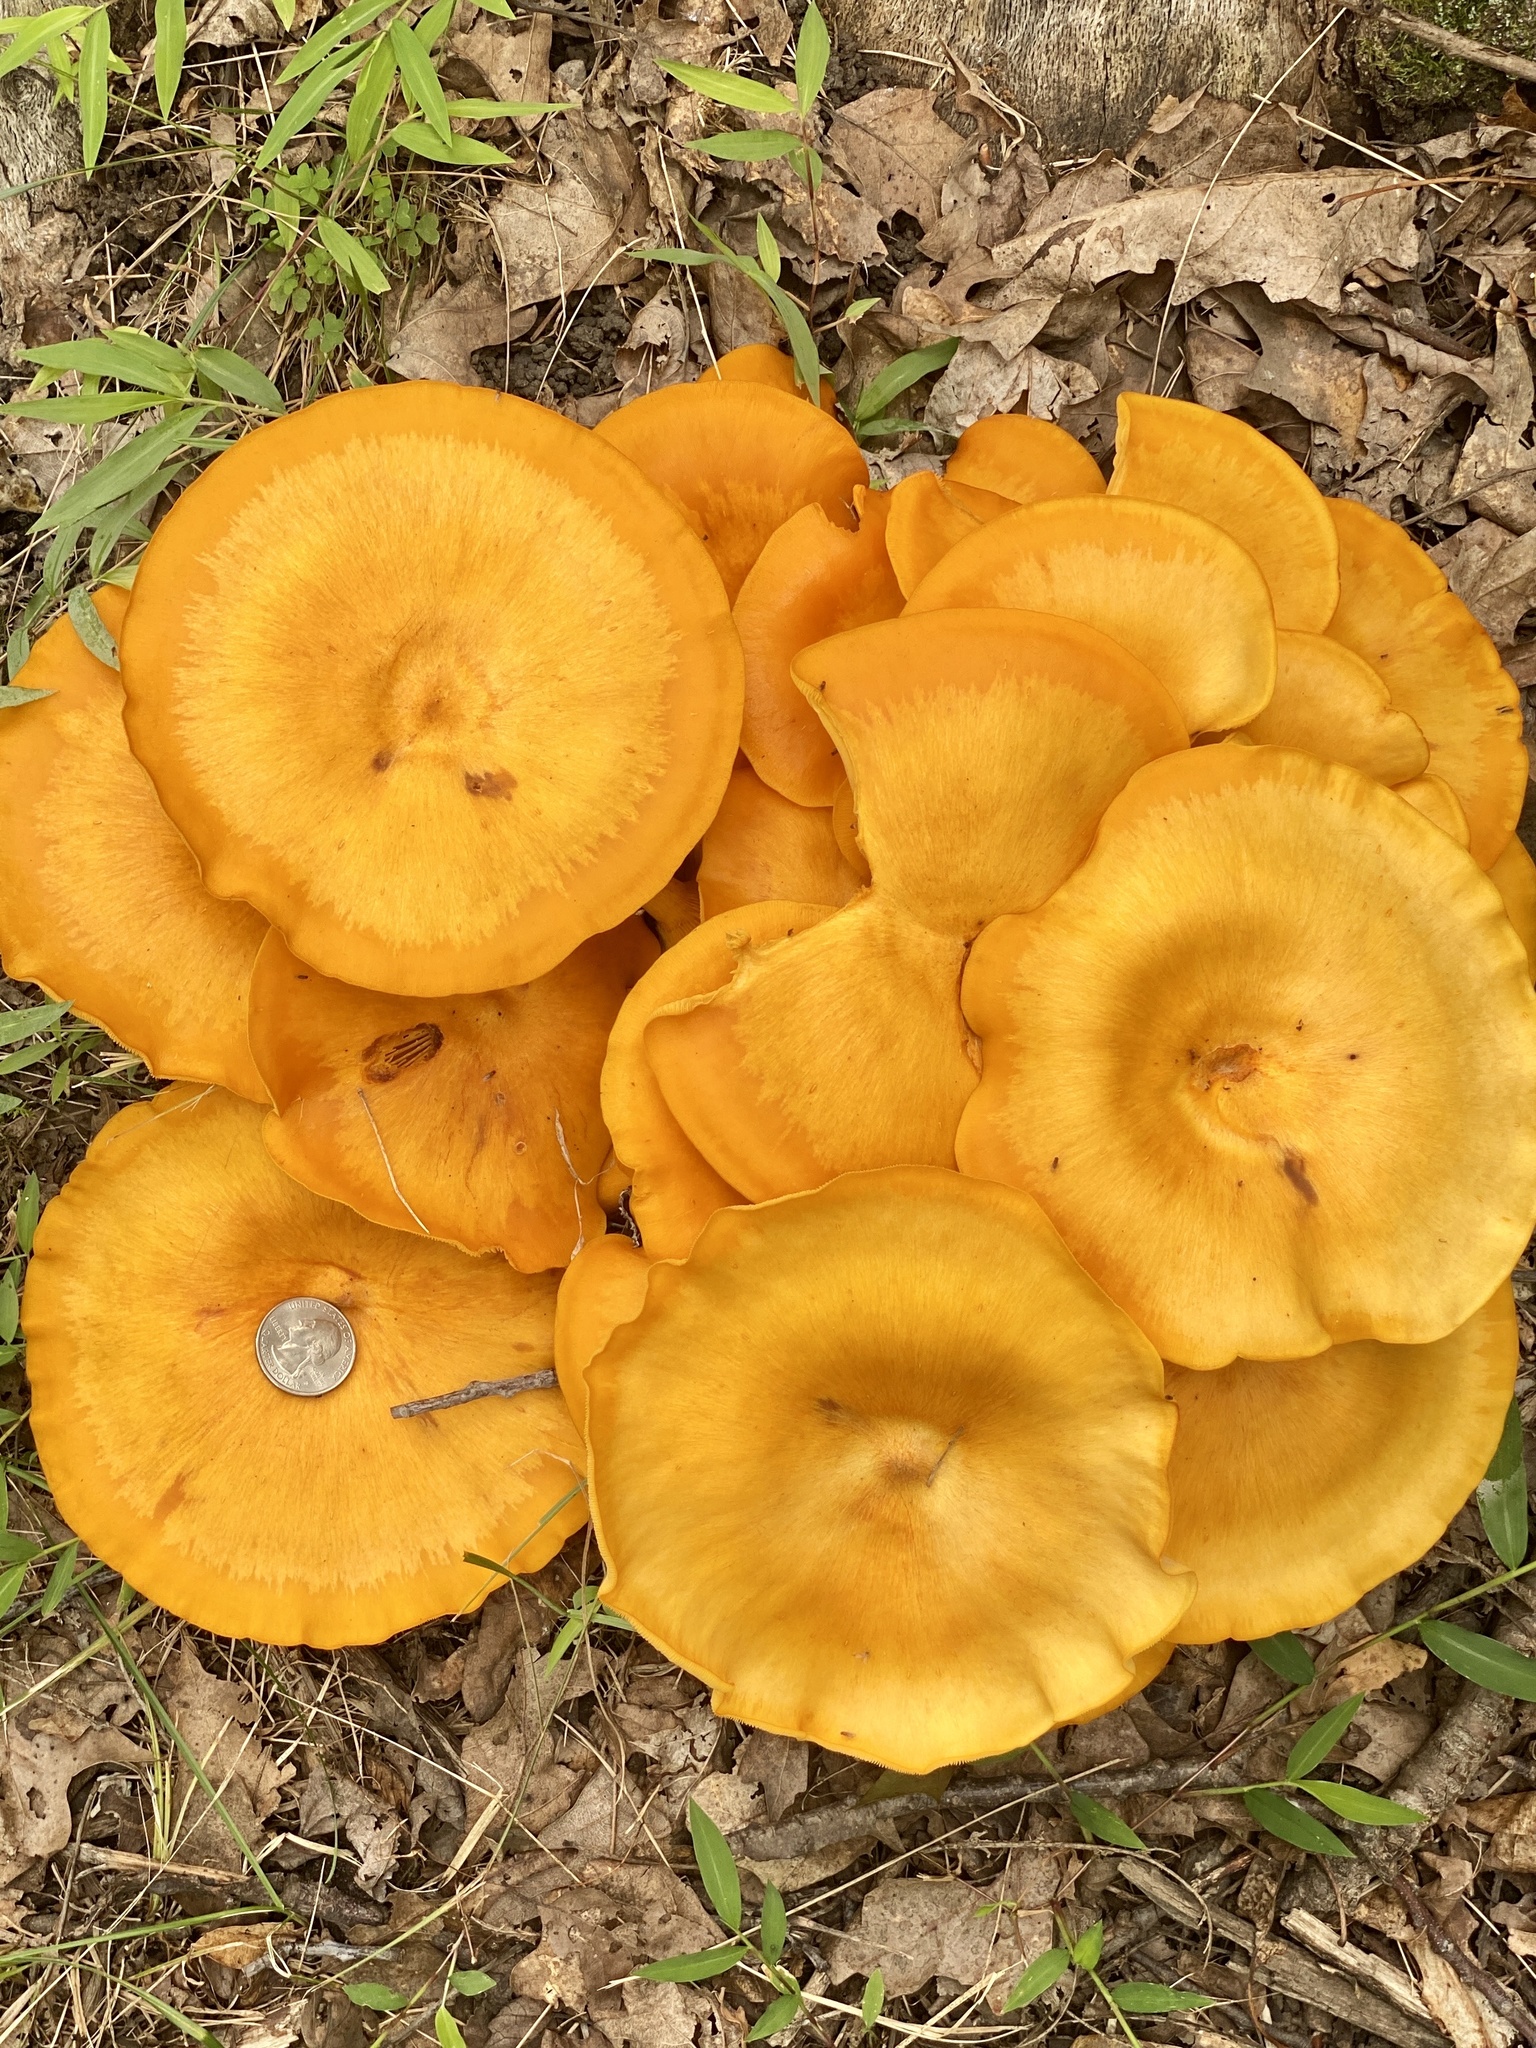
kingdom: Fungi
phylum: Basidiomycota
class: Agaricomycetes
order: Agaricales
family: Omphalotaceae
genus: Omphalotus
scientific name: Omphalotus illudens
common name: Jack o lantern
